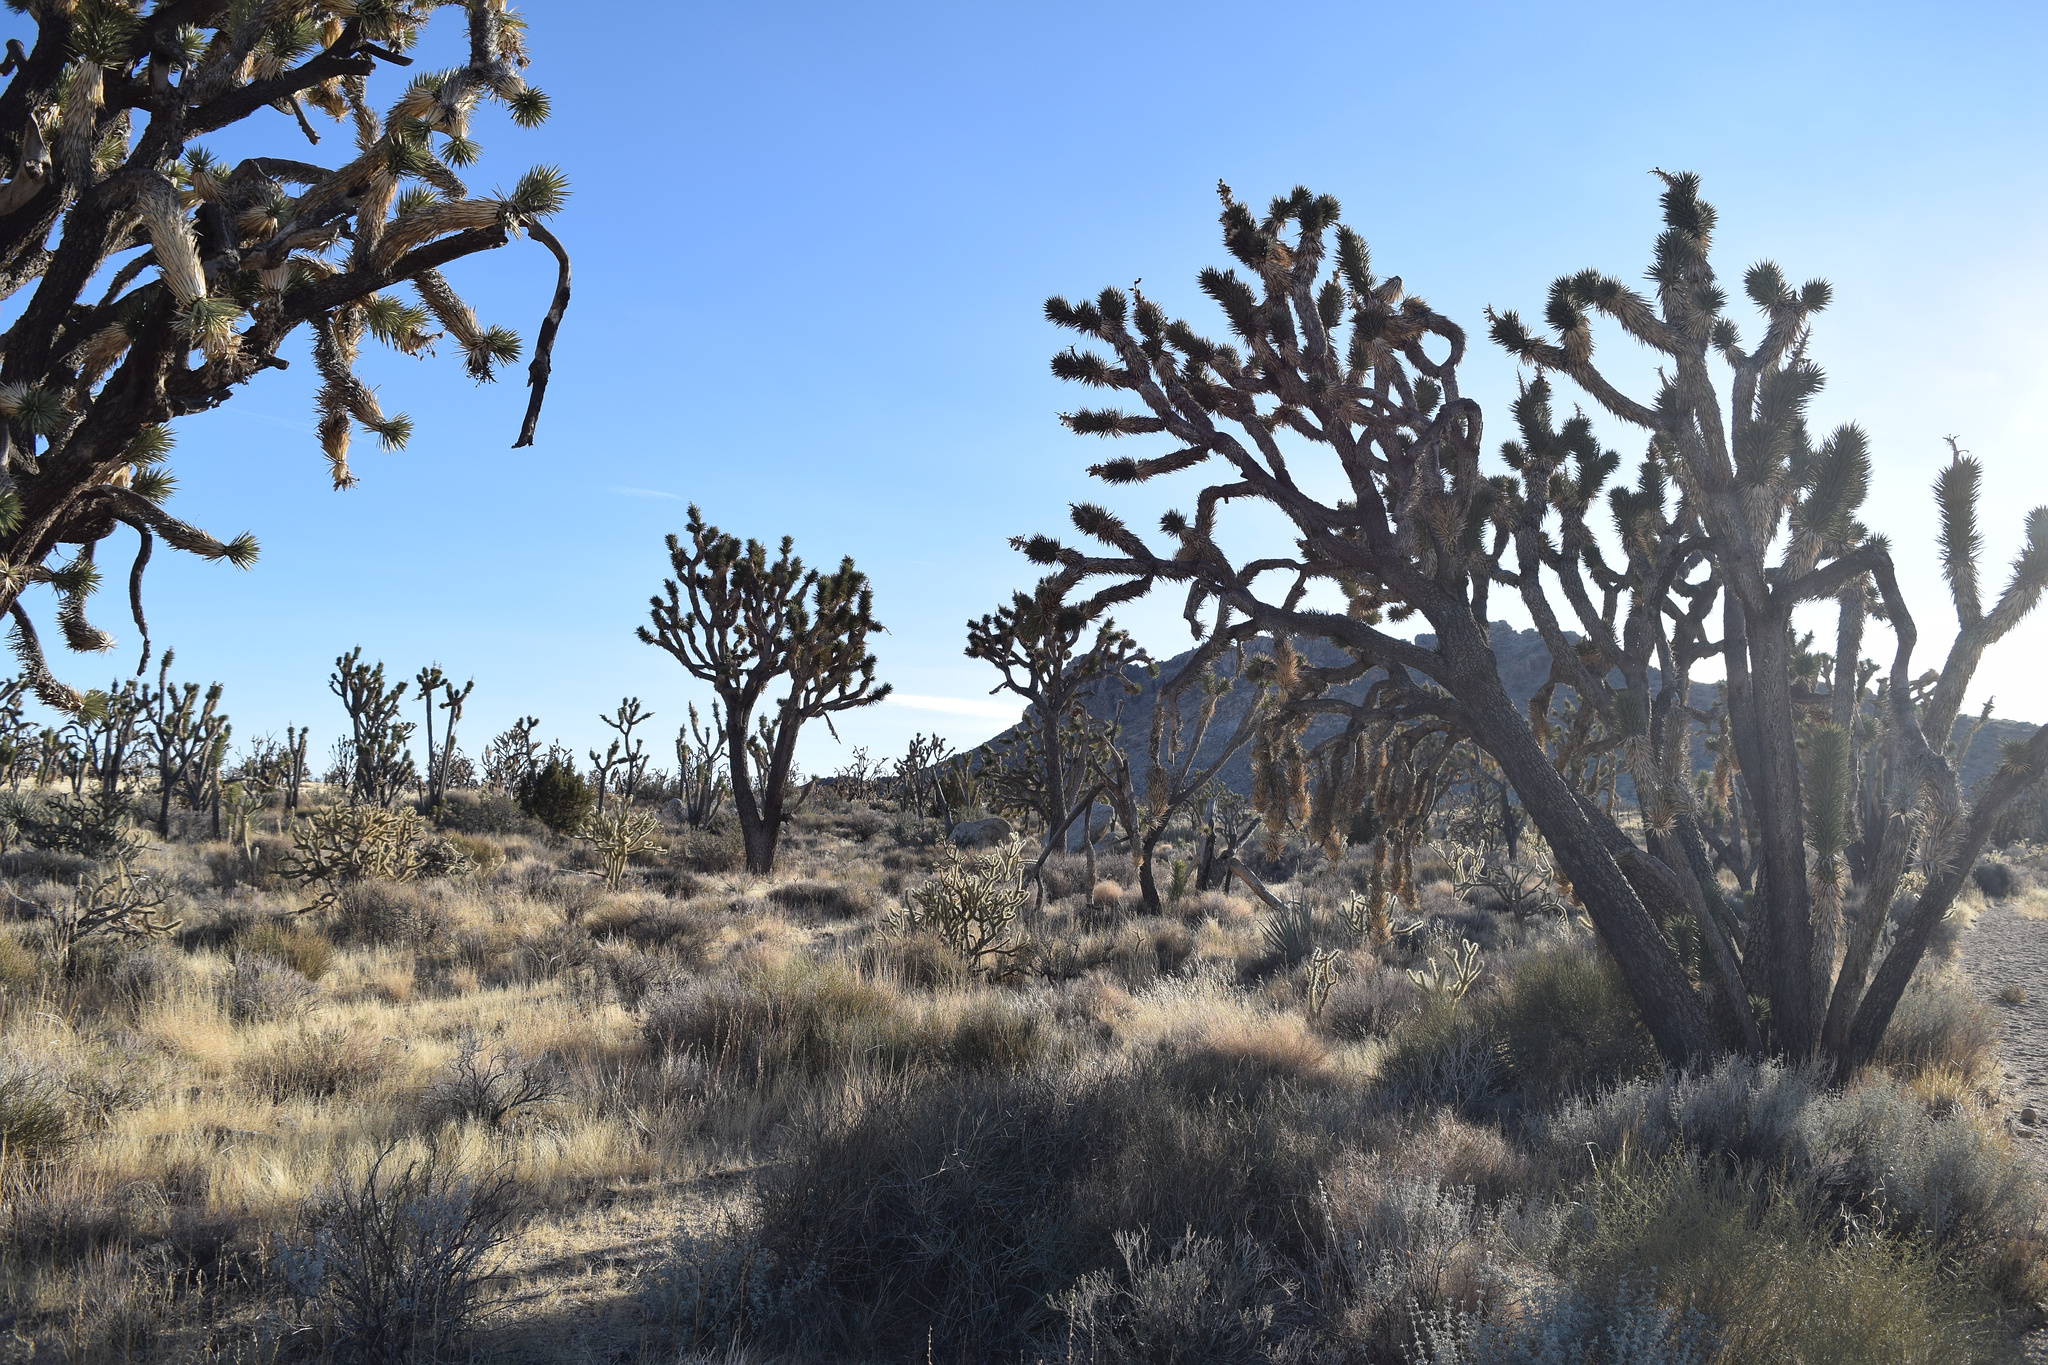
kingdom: Plantae
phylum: Tracheophyta
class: Liliopsida
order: Asparagales
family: Asparagaceae
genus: Yucca
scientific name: Yucca brevifolia
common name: Joshua tree
